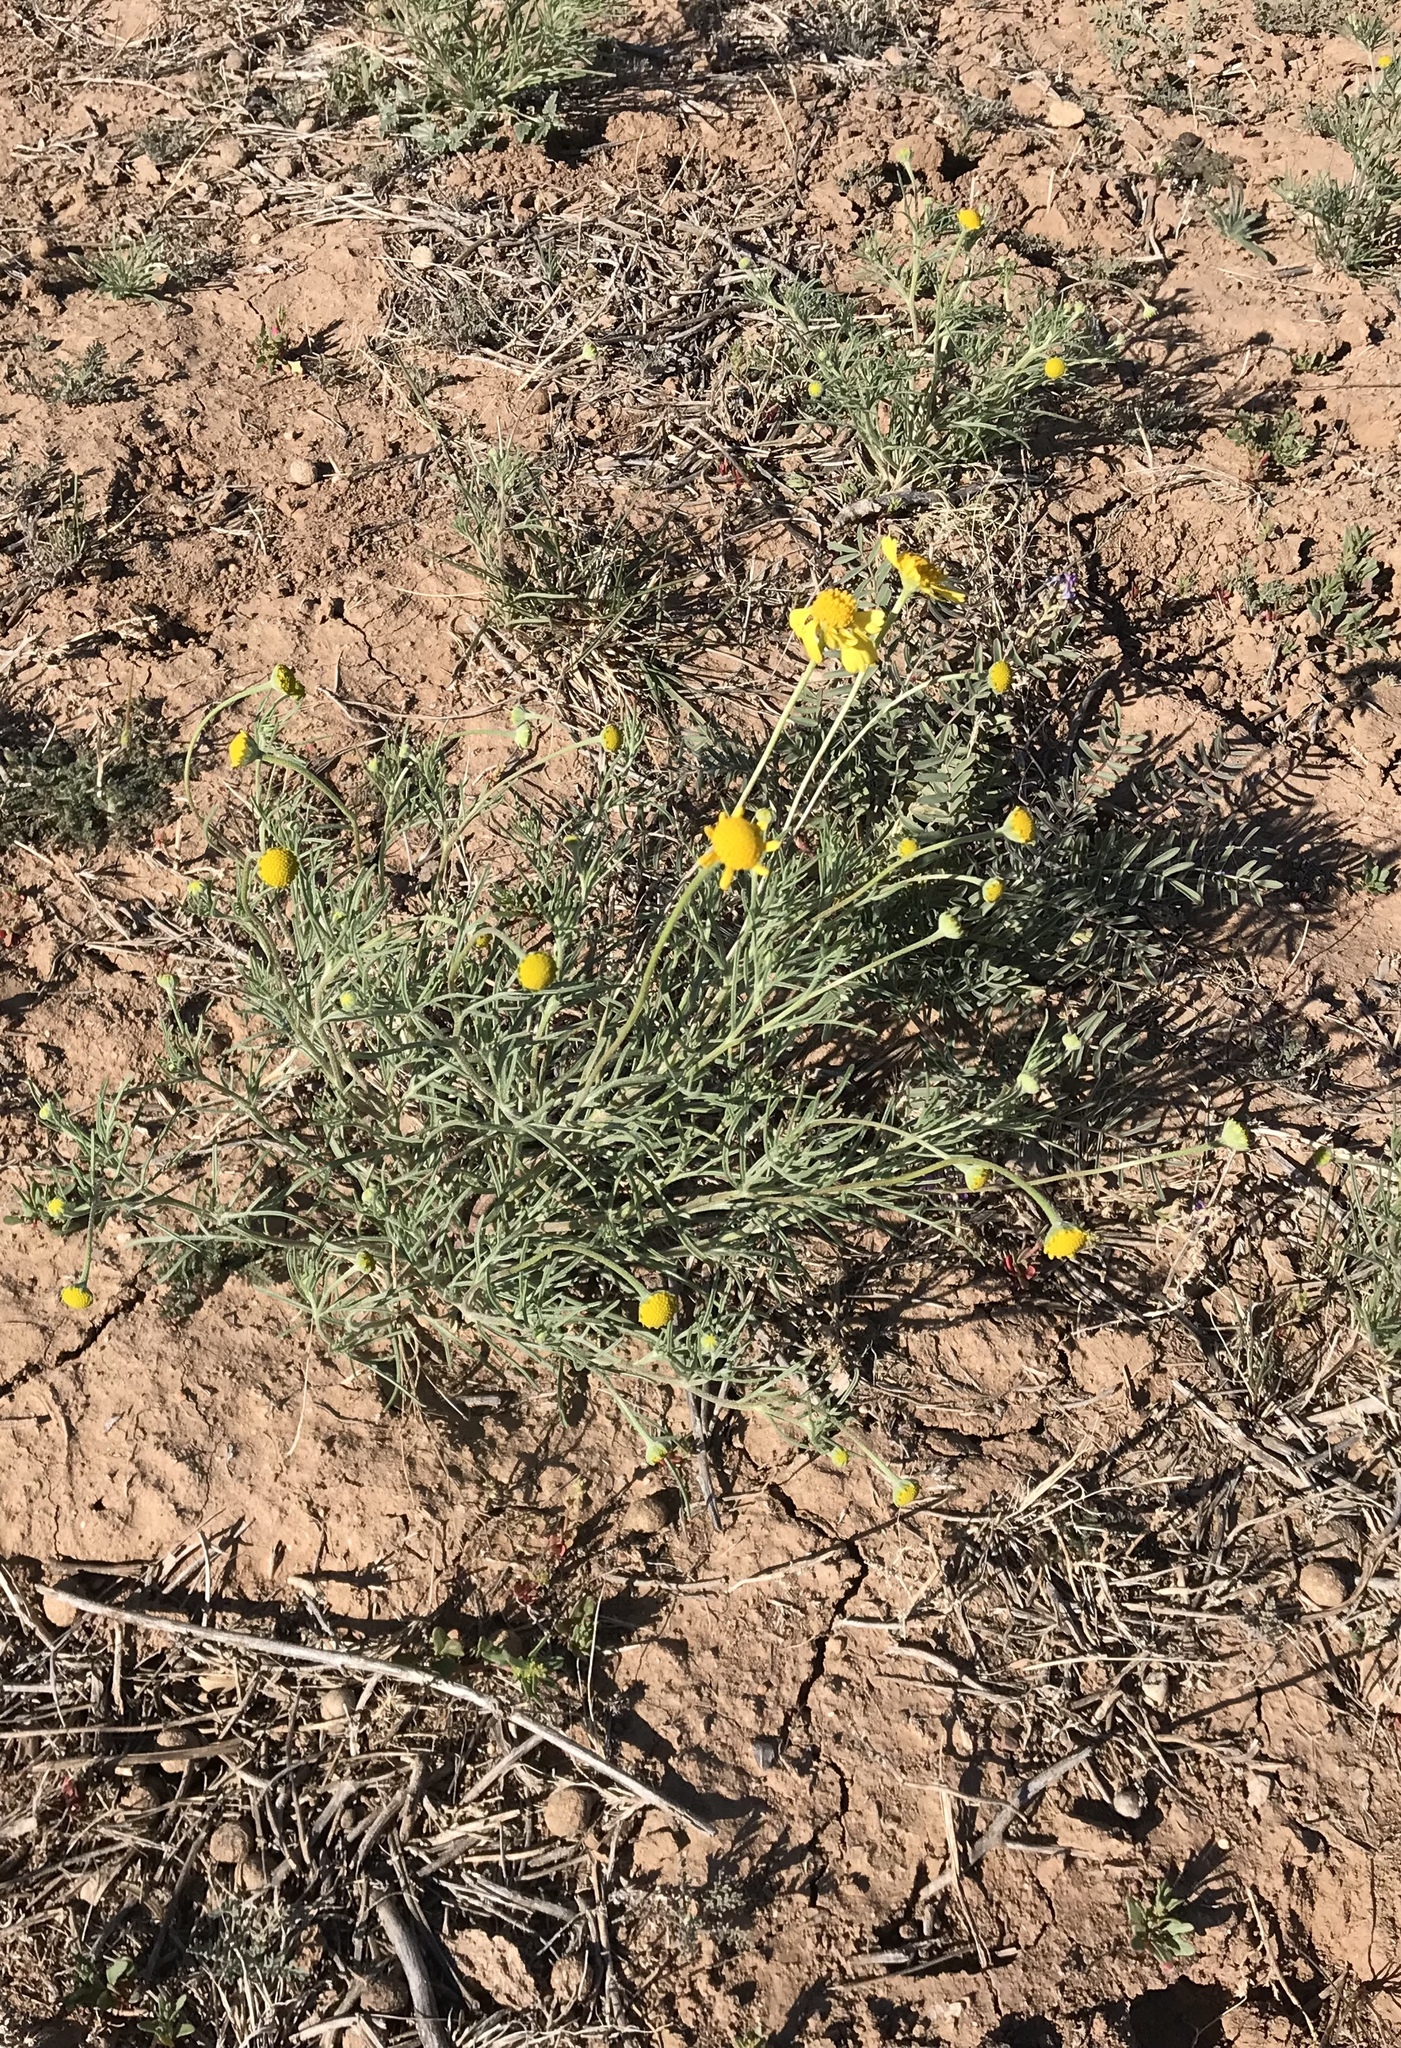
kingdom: Plantae
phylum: Tracheophyta
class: Magnoliopsida
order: Asterales
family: Asteraceae
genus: Hymenoxys
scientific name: Hymenoxys odorata
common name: Bitter rubberweed
